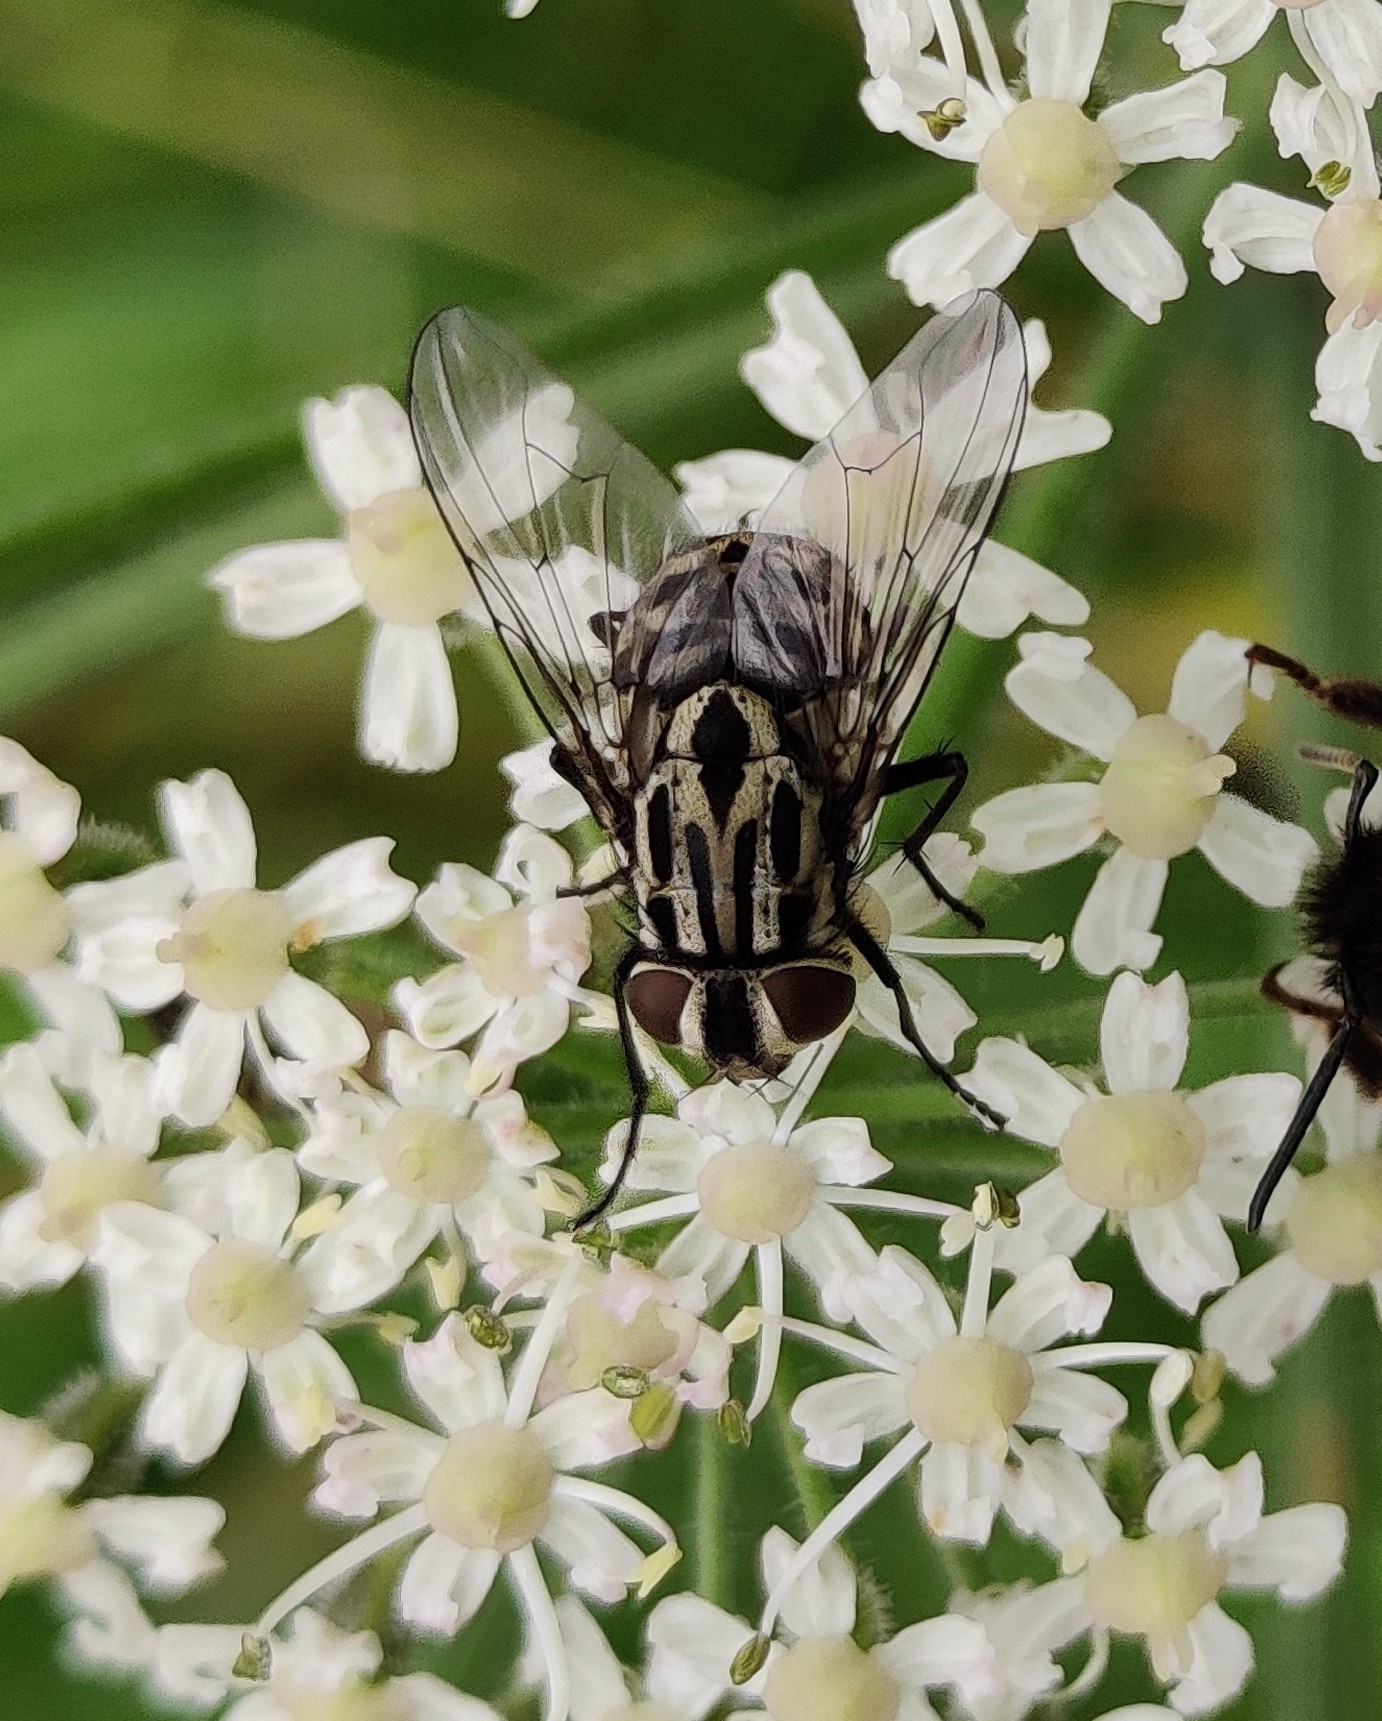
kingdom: Animalia
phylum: Arthropoda
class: Insecta
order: Diptera
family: Muscidae
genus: Graphomya
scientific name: Graphomya maculata
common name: Muscid fly
